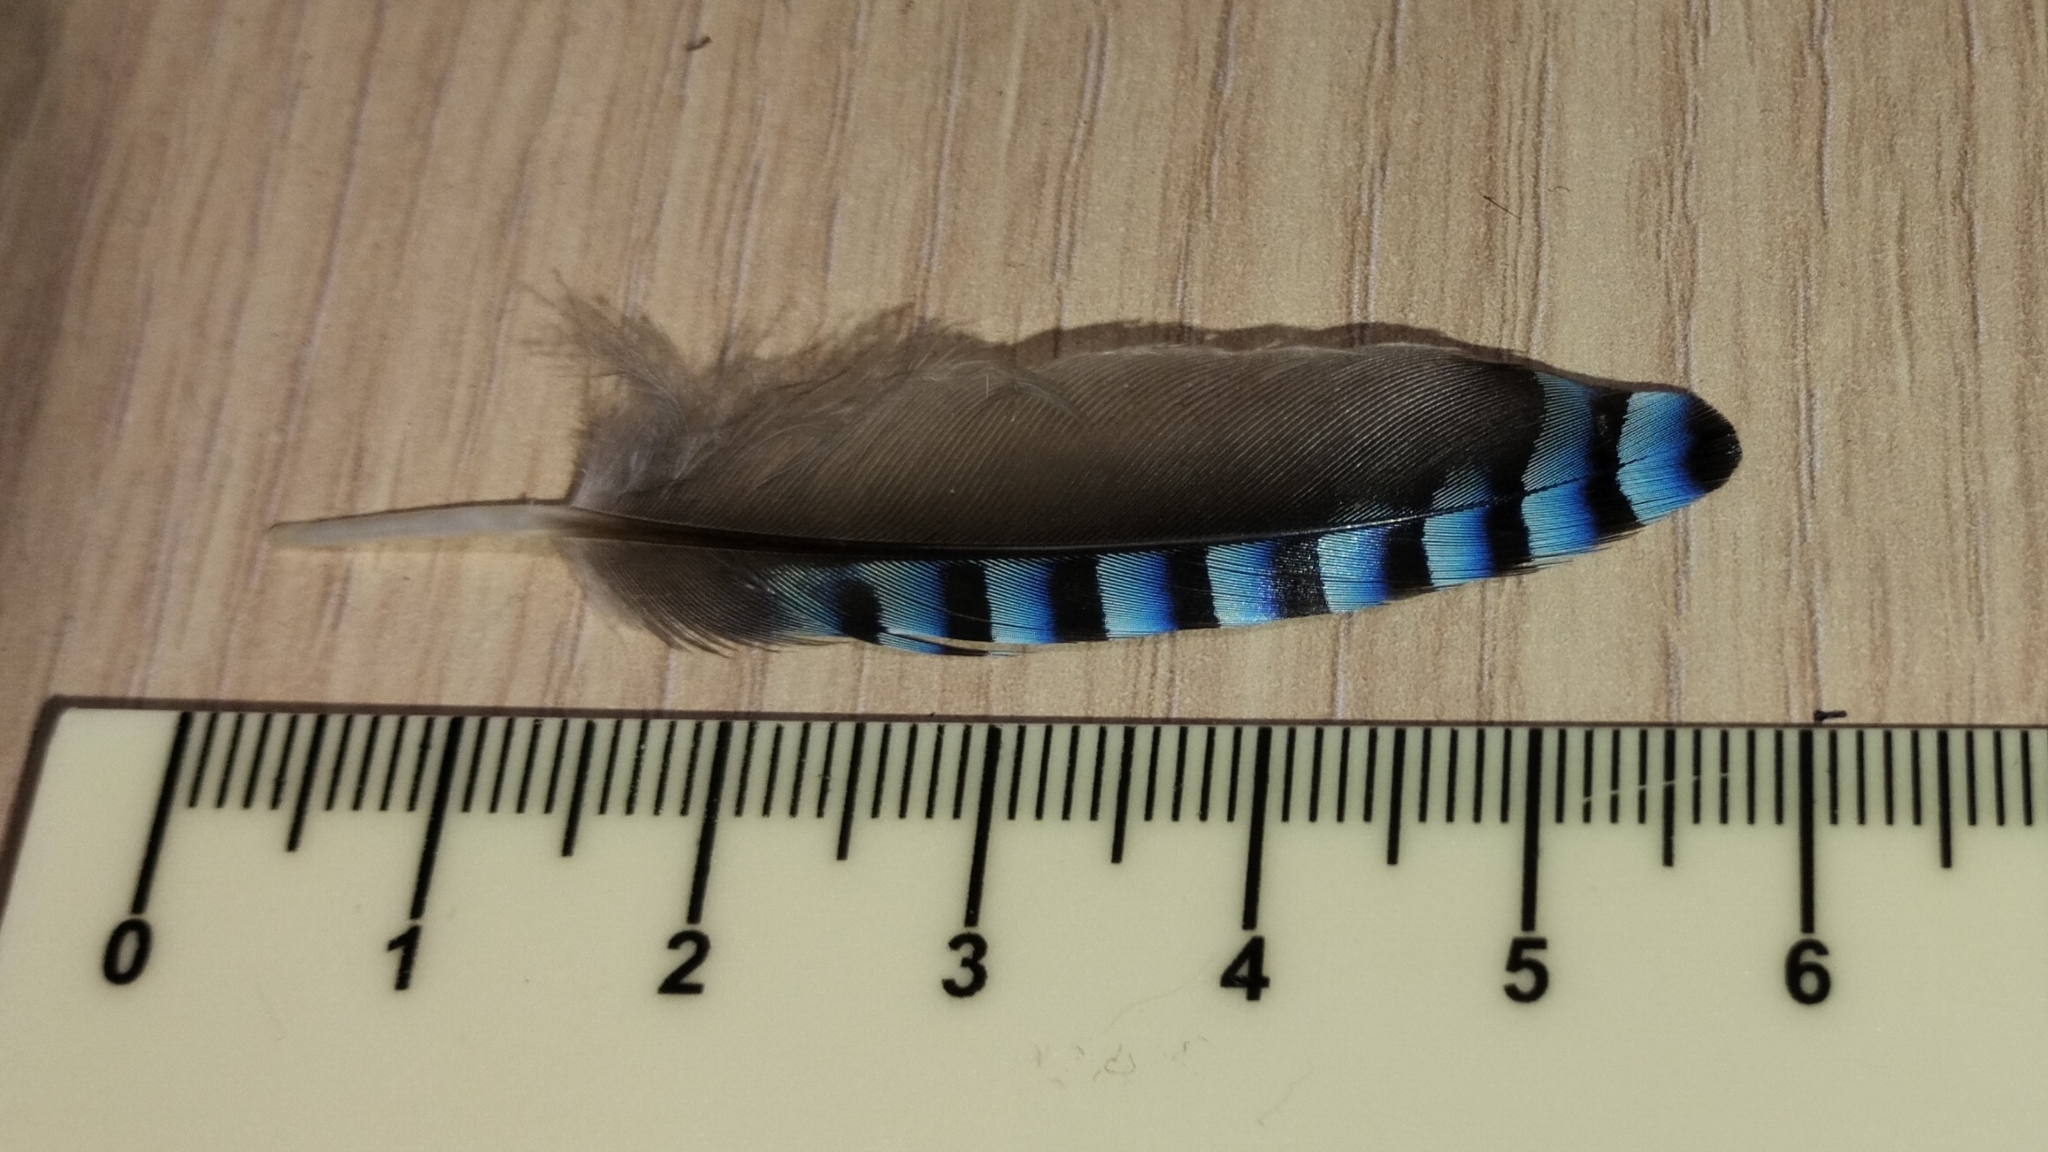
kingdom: Animalia
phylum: Chordata
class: Aves
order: Passeriformes
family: Corvidae
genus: Garrulus
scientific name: Garrulus glandarius
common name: Eurasian jay
